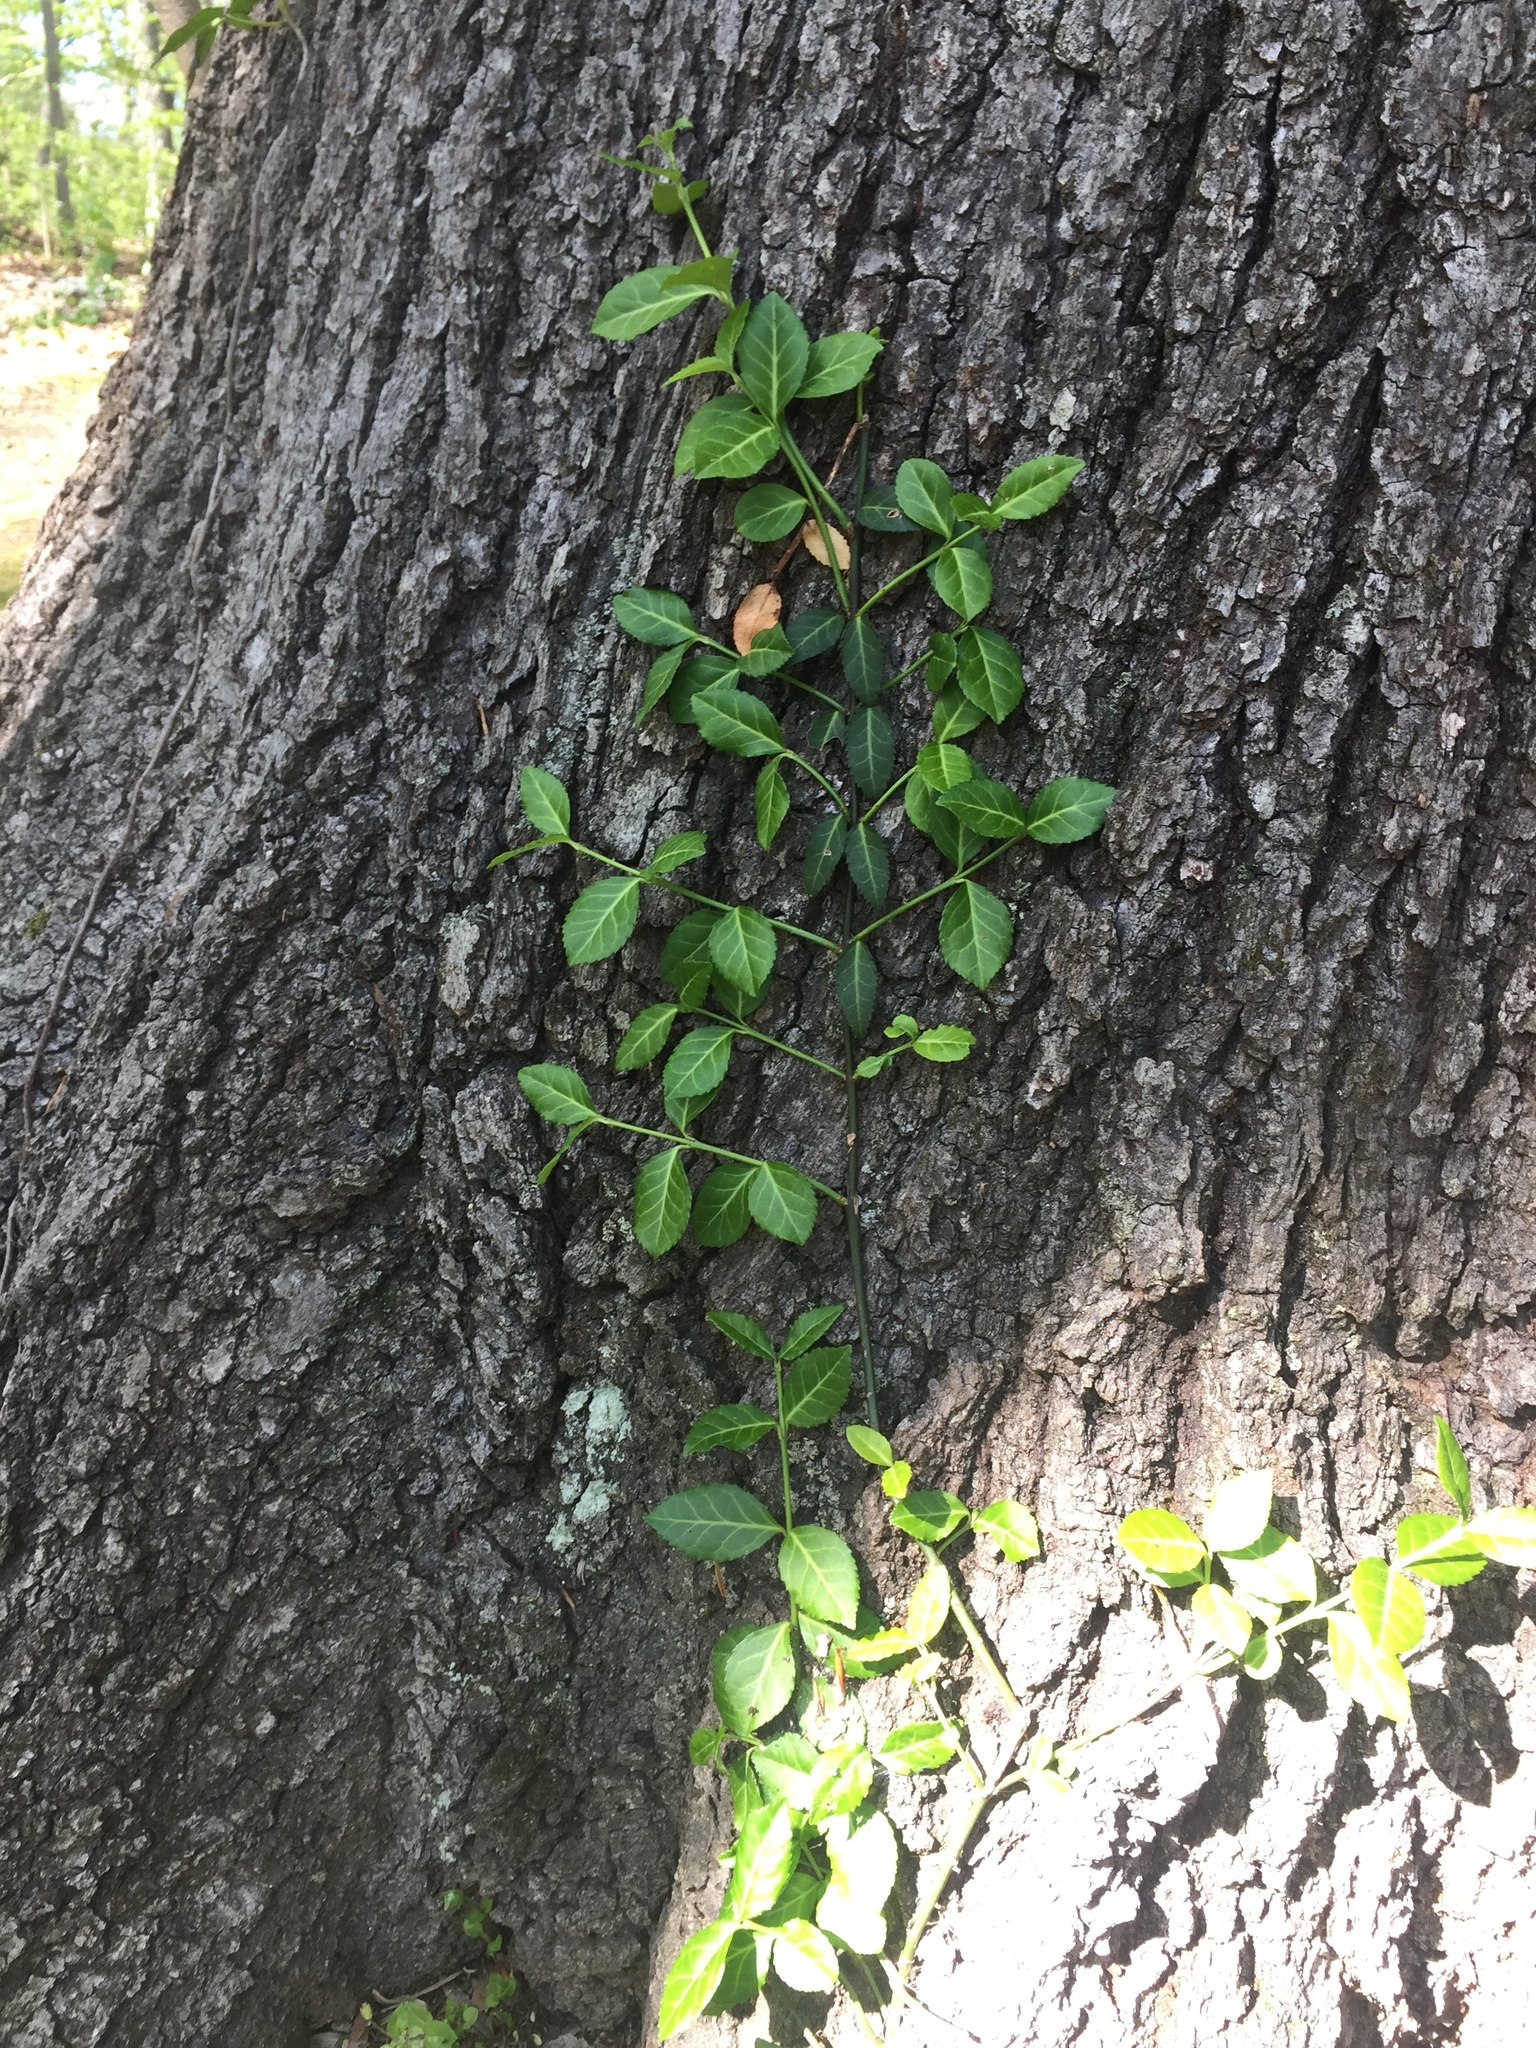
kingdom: Plantae
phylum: Tracheophyta
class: Magnoliopsida
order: Celastrales
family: Celastraceae
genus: Euonymus
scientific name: Euonymus fortunei
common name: Climbing euonymus
